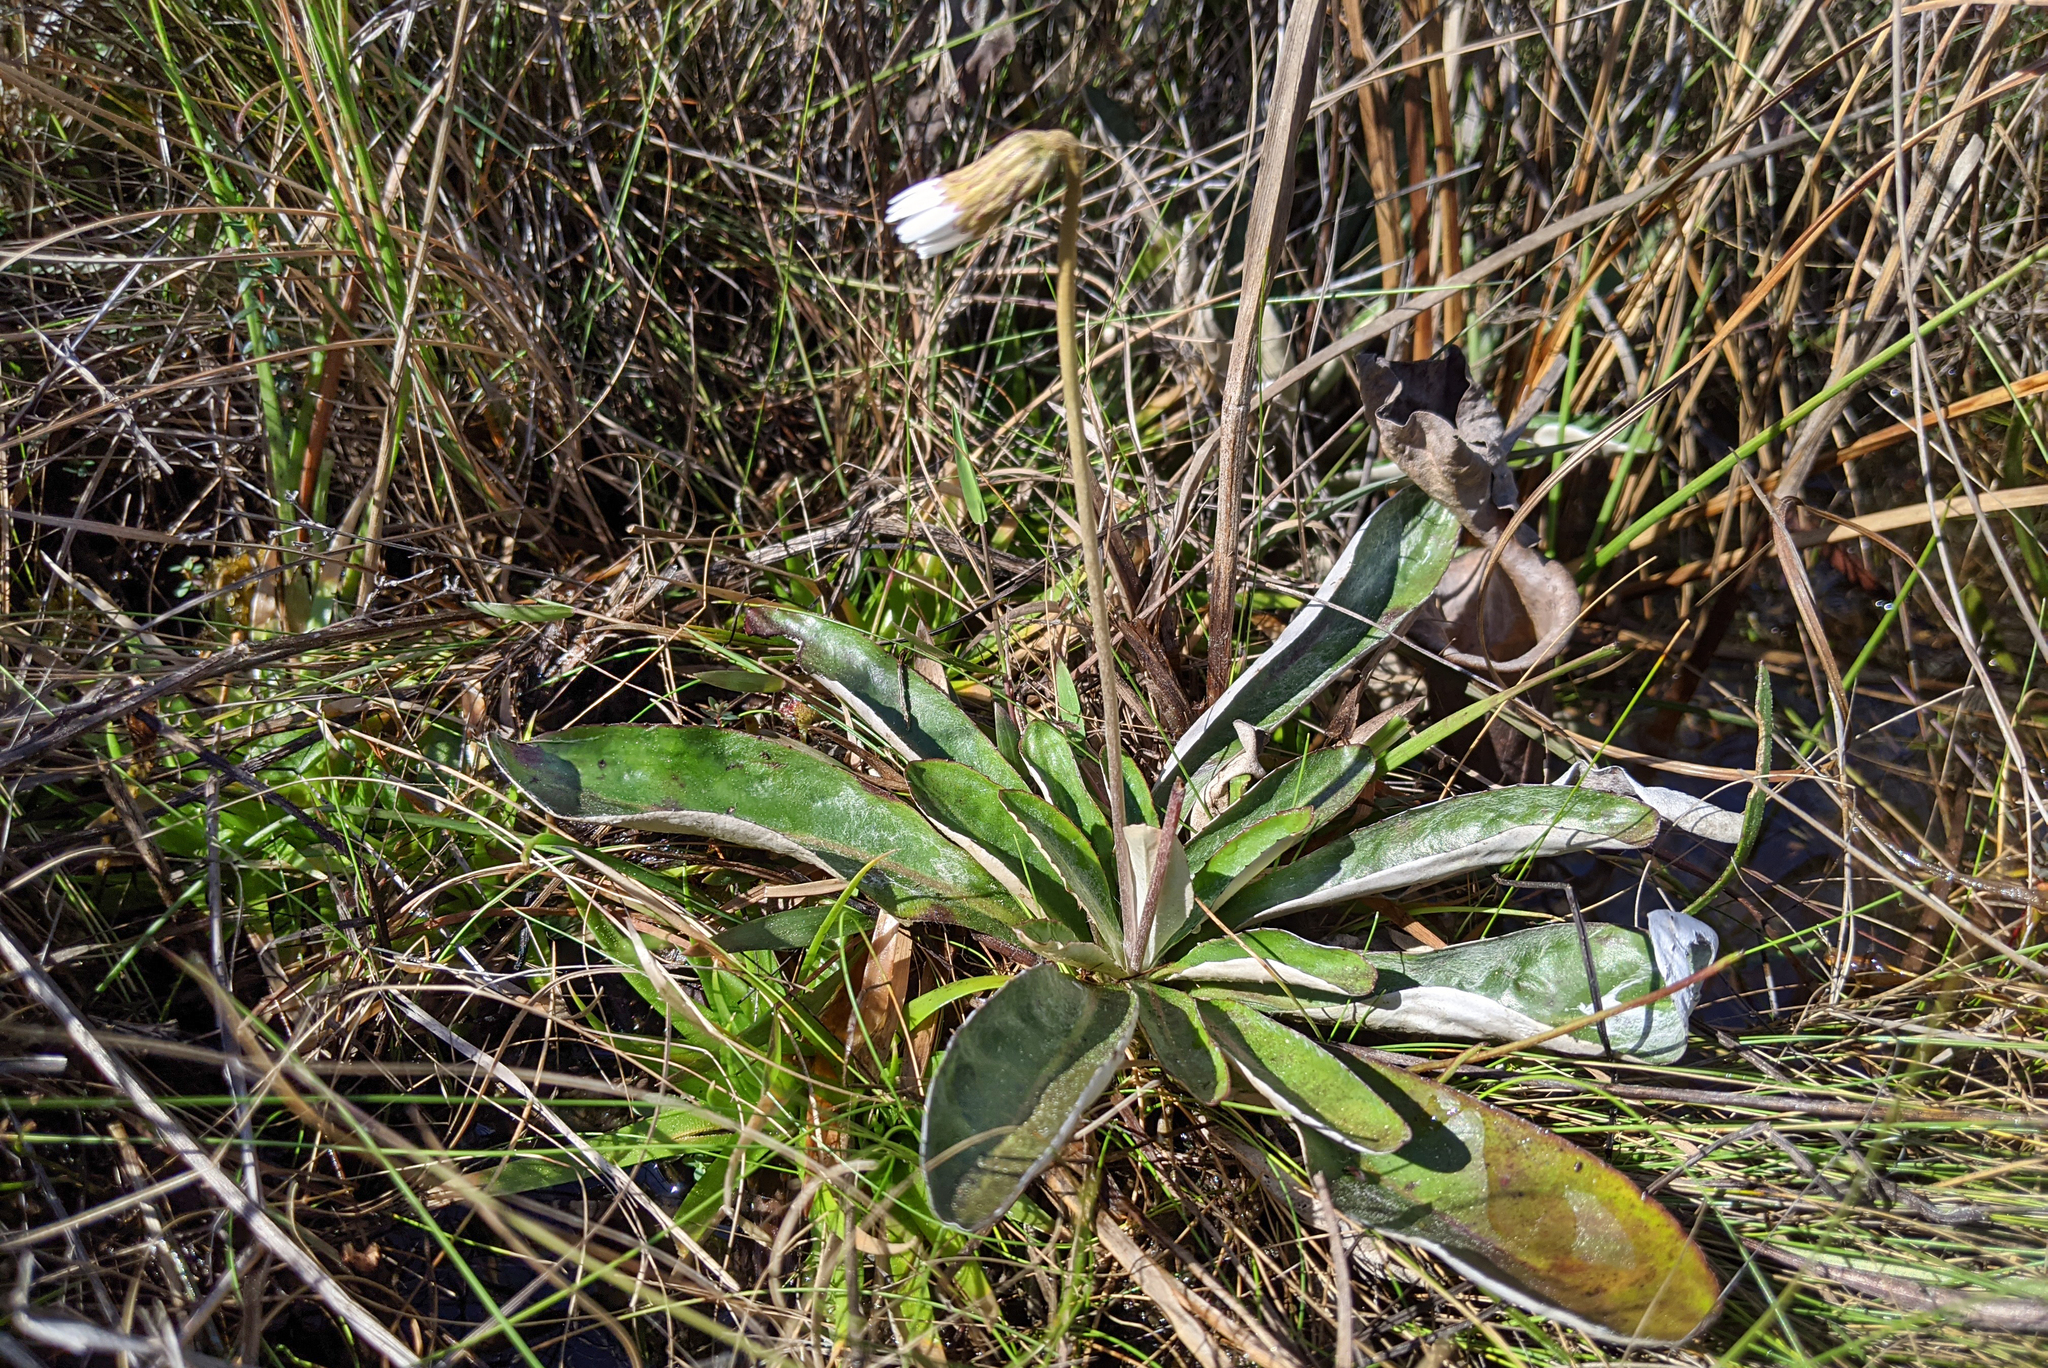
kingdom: Plantae
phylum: Tracheophyta
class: Magnoliopsida
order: Asterales
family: Asteraceae
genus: Chaptalia
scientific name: Chaptalia tomentosa
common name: Woolly sunbonnet
